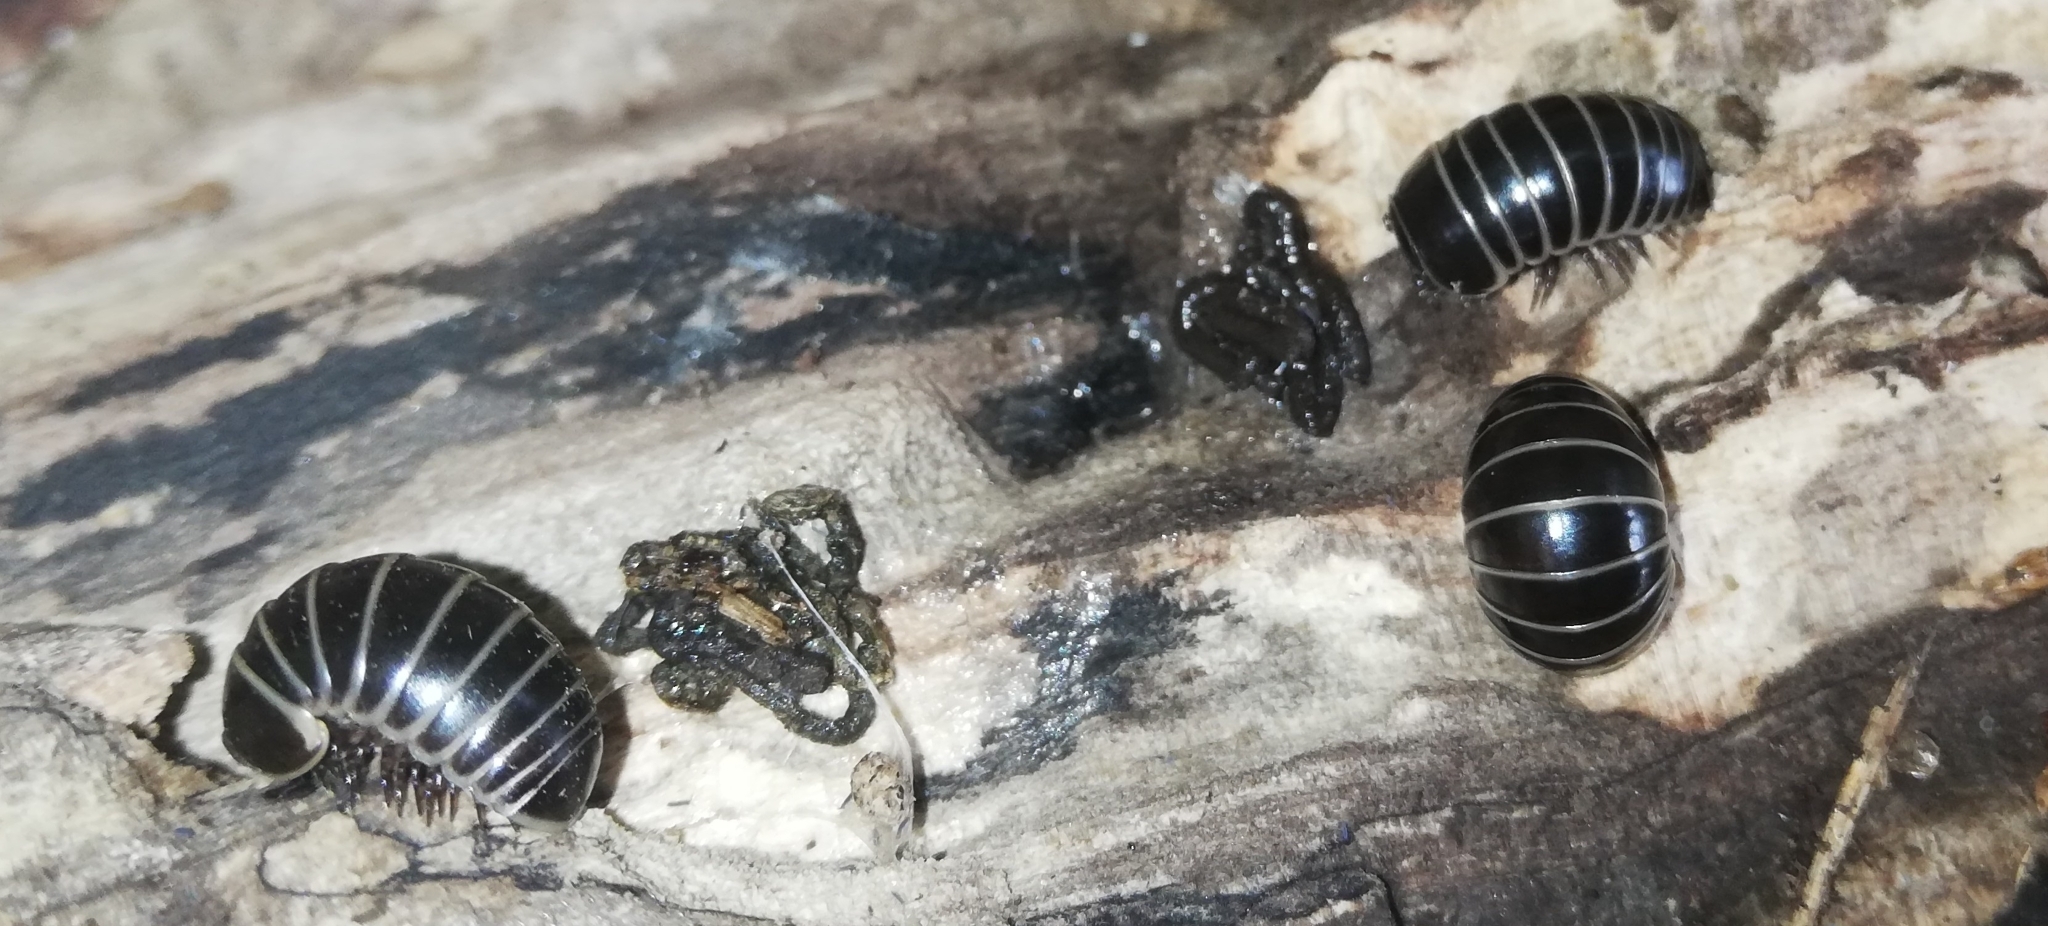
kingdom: Animalia
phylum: Arthropoda
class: Diplopoda
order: Glomerida
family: Glomeridae
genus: Glomeris
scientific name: Glomeris marginata
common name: Bordered pill millipede
